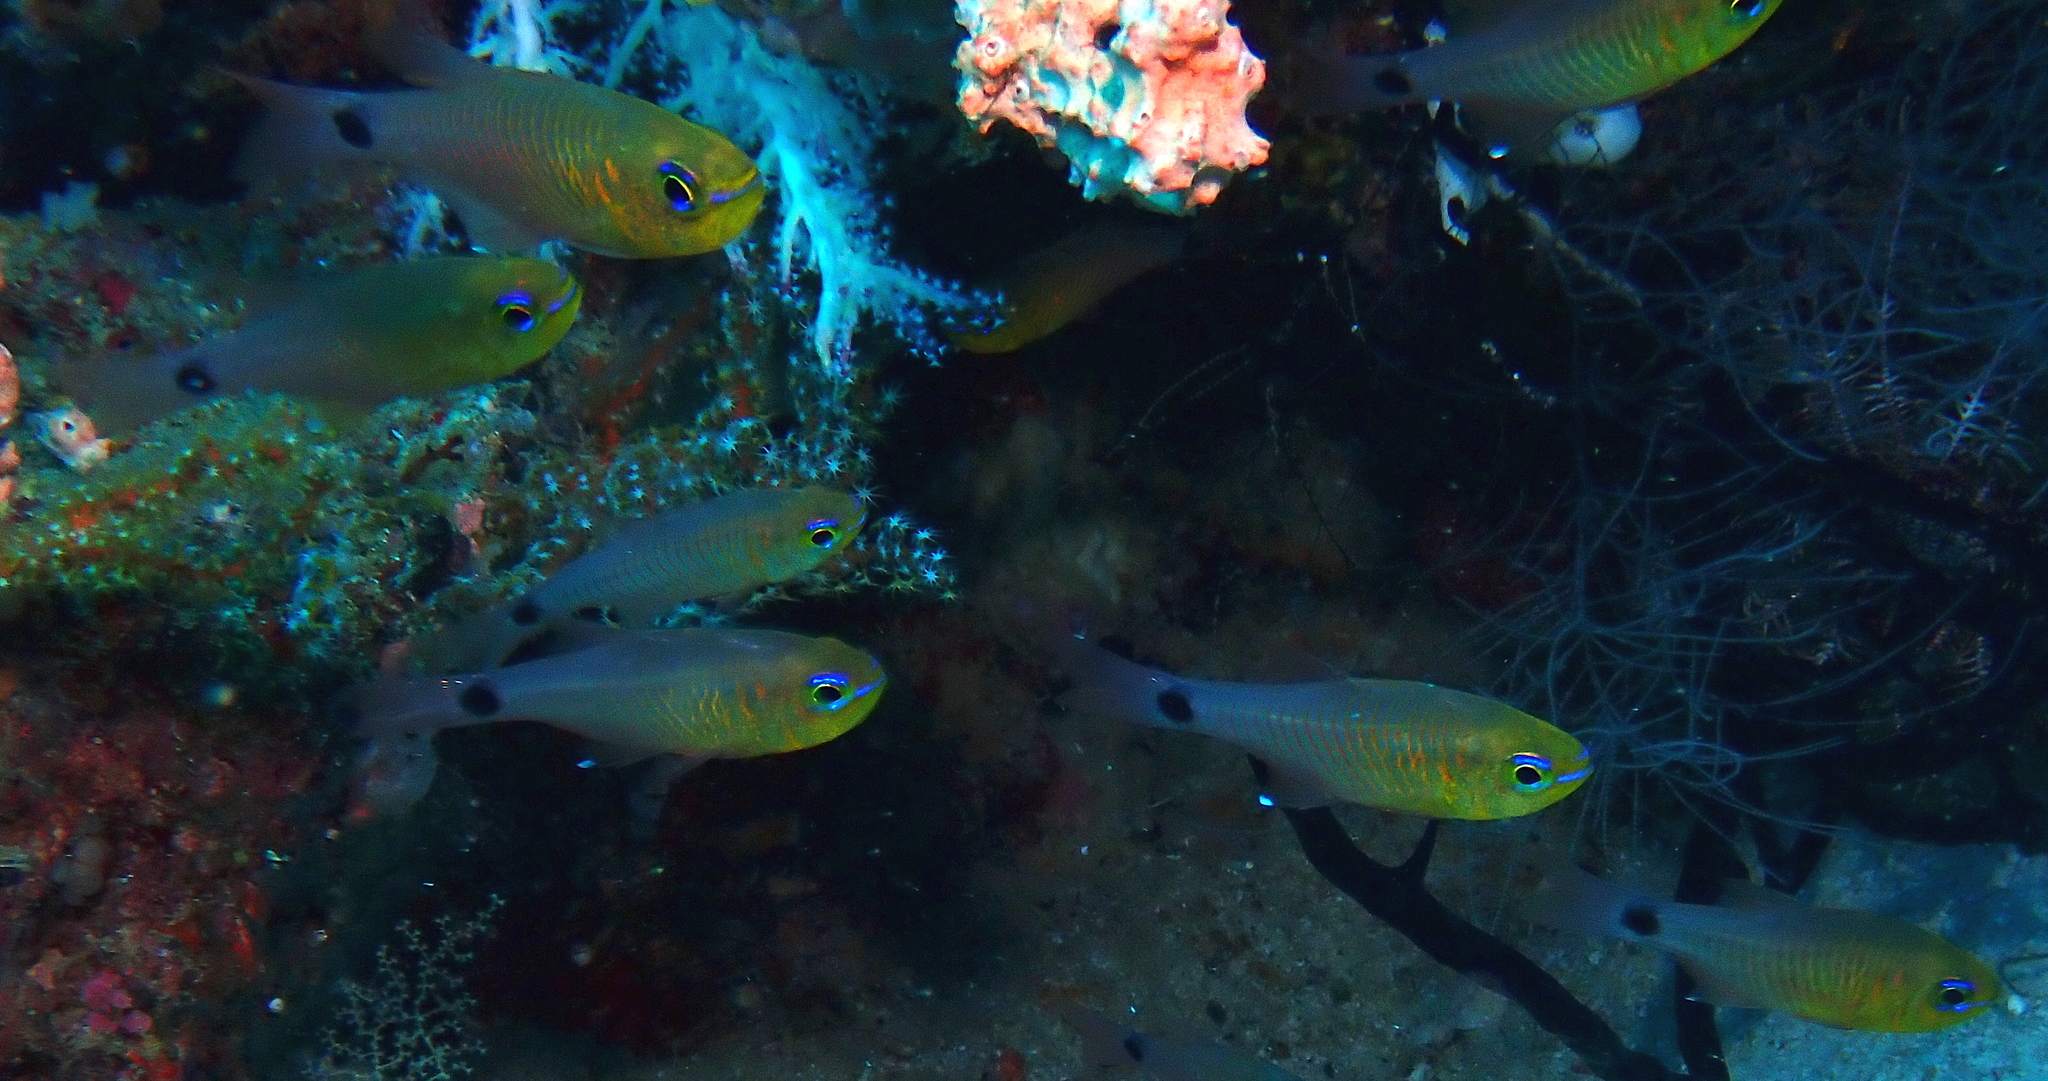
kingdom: Animalia
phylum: Chordata
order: Perciformes
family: Apogonidae
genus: Taeniamia
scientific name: Taeniamia fucata
